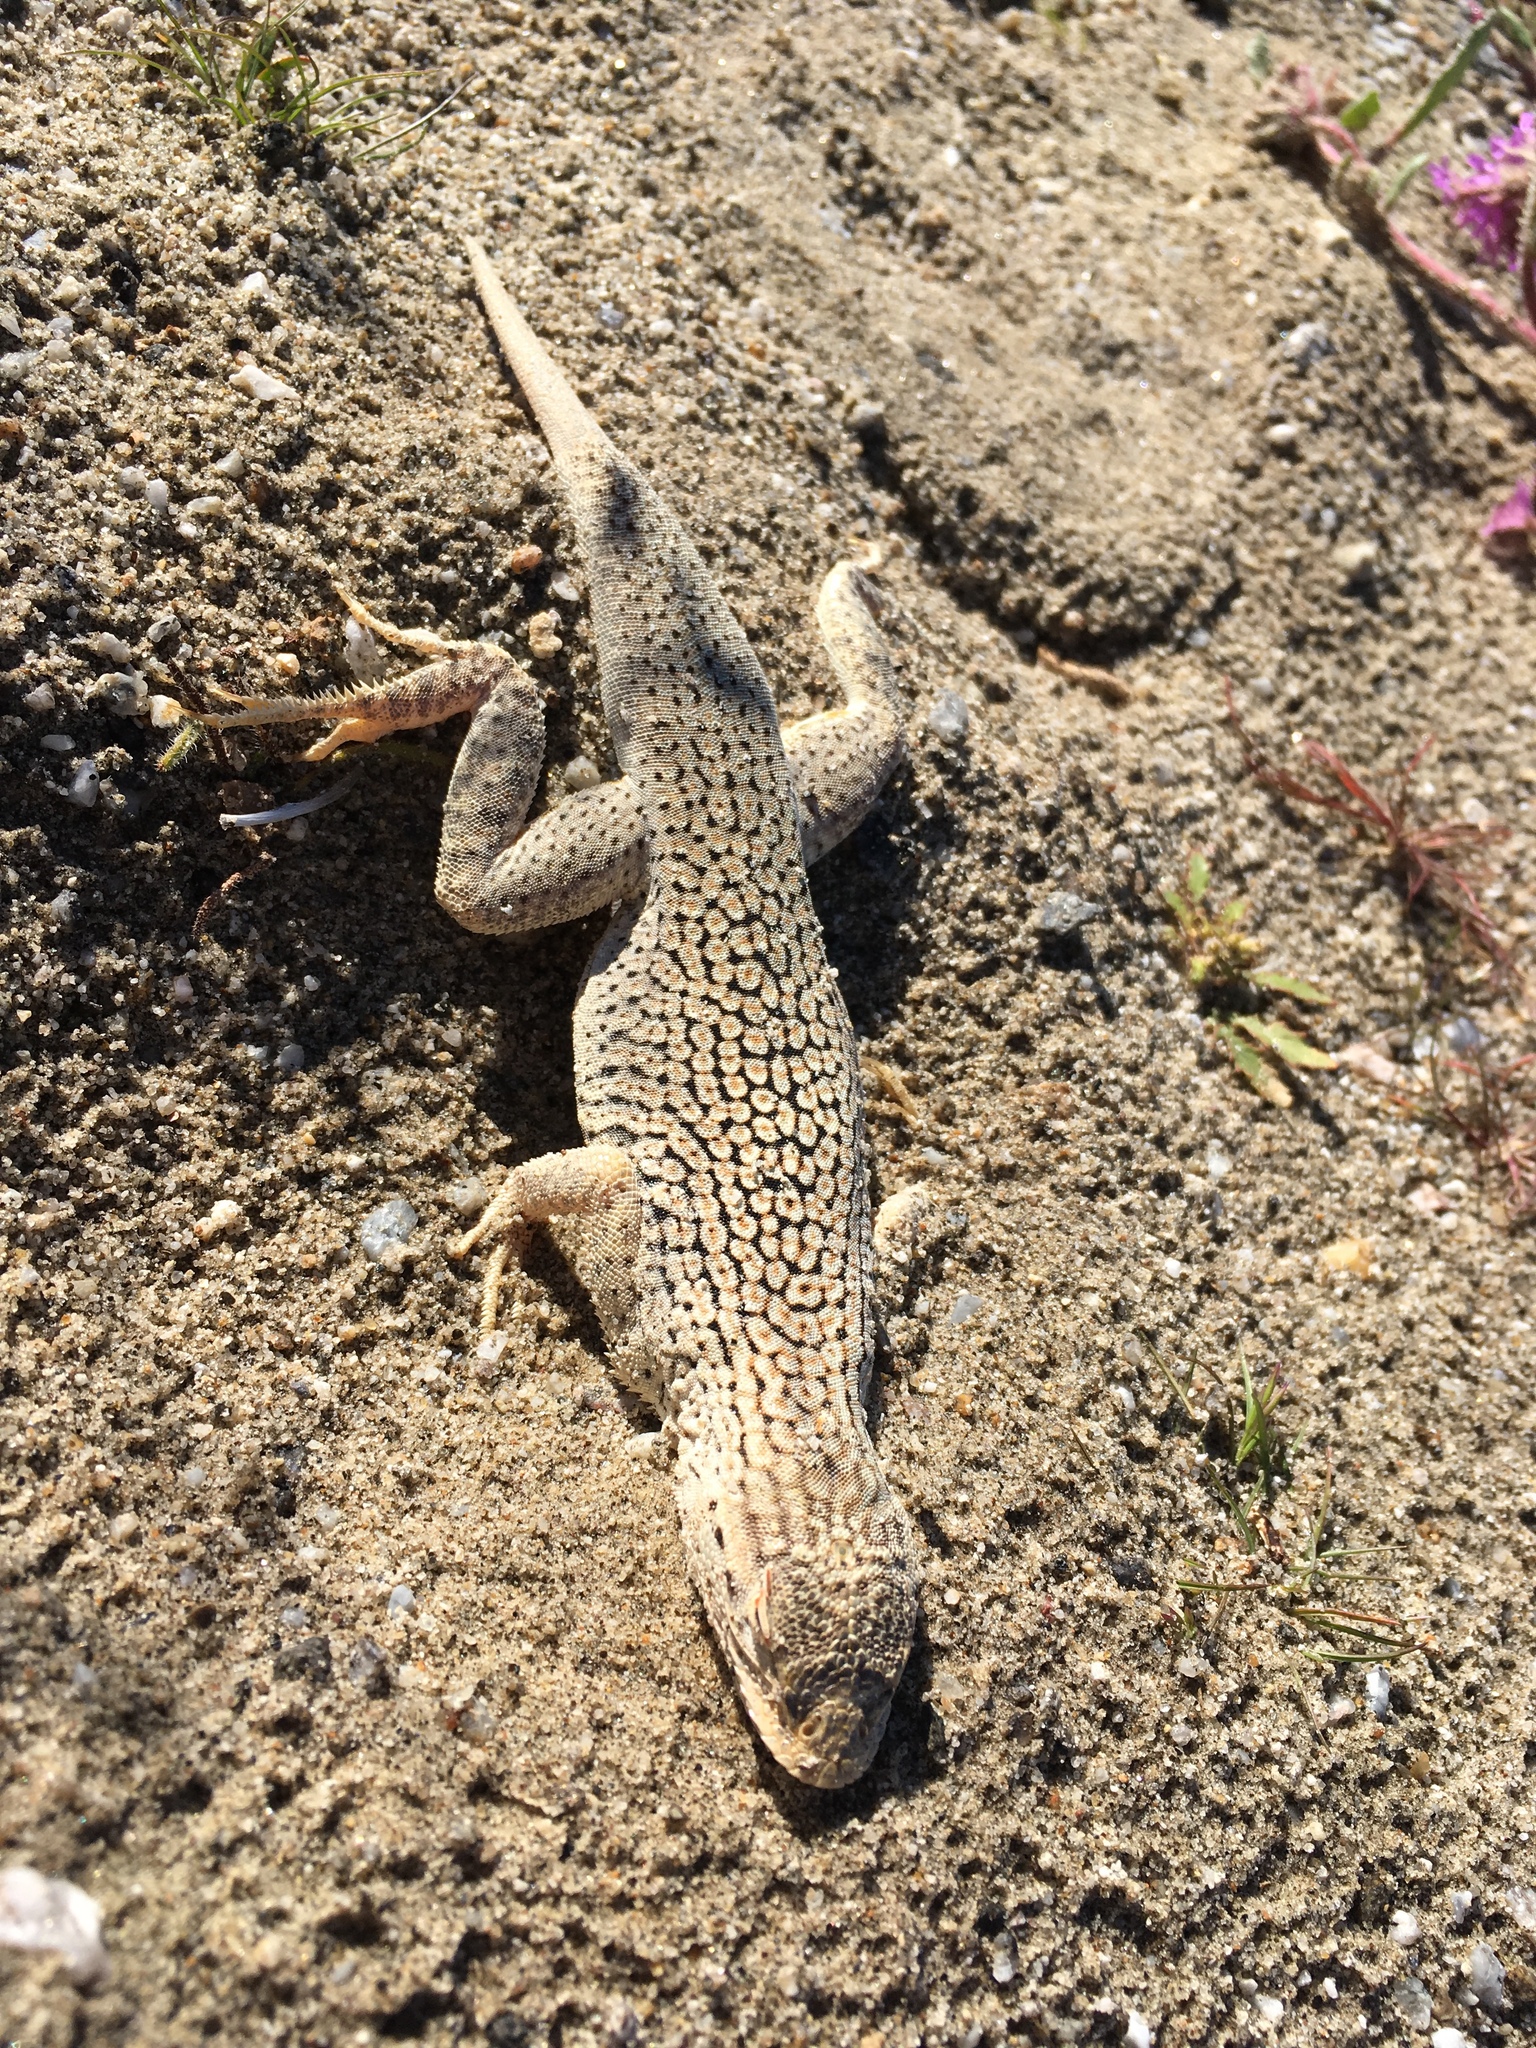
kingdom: Animalia
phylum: Chordata
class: Squamata
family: Phrynosomatidae
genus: Uma
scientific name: Uma notata
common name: Colorado desert fringe-toed lizard
